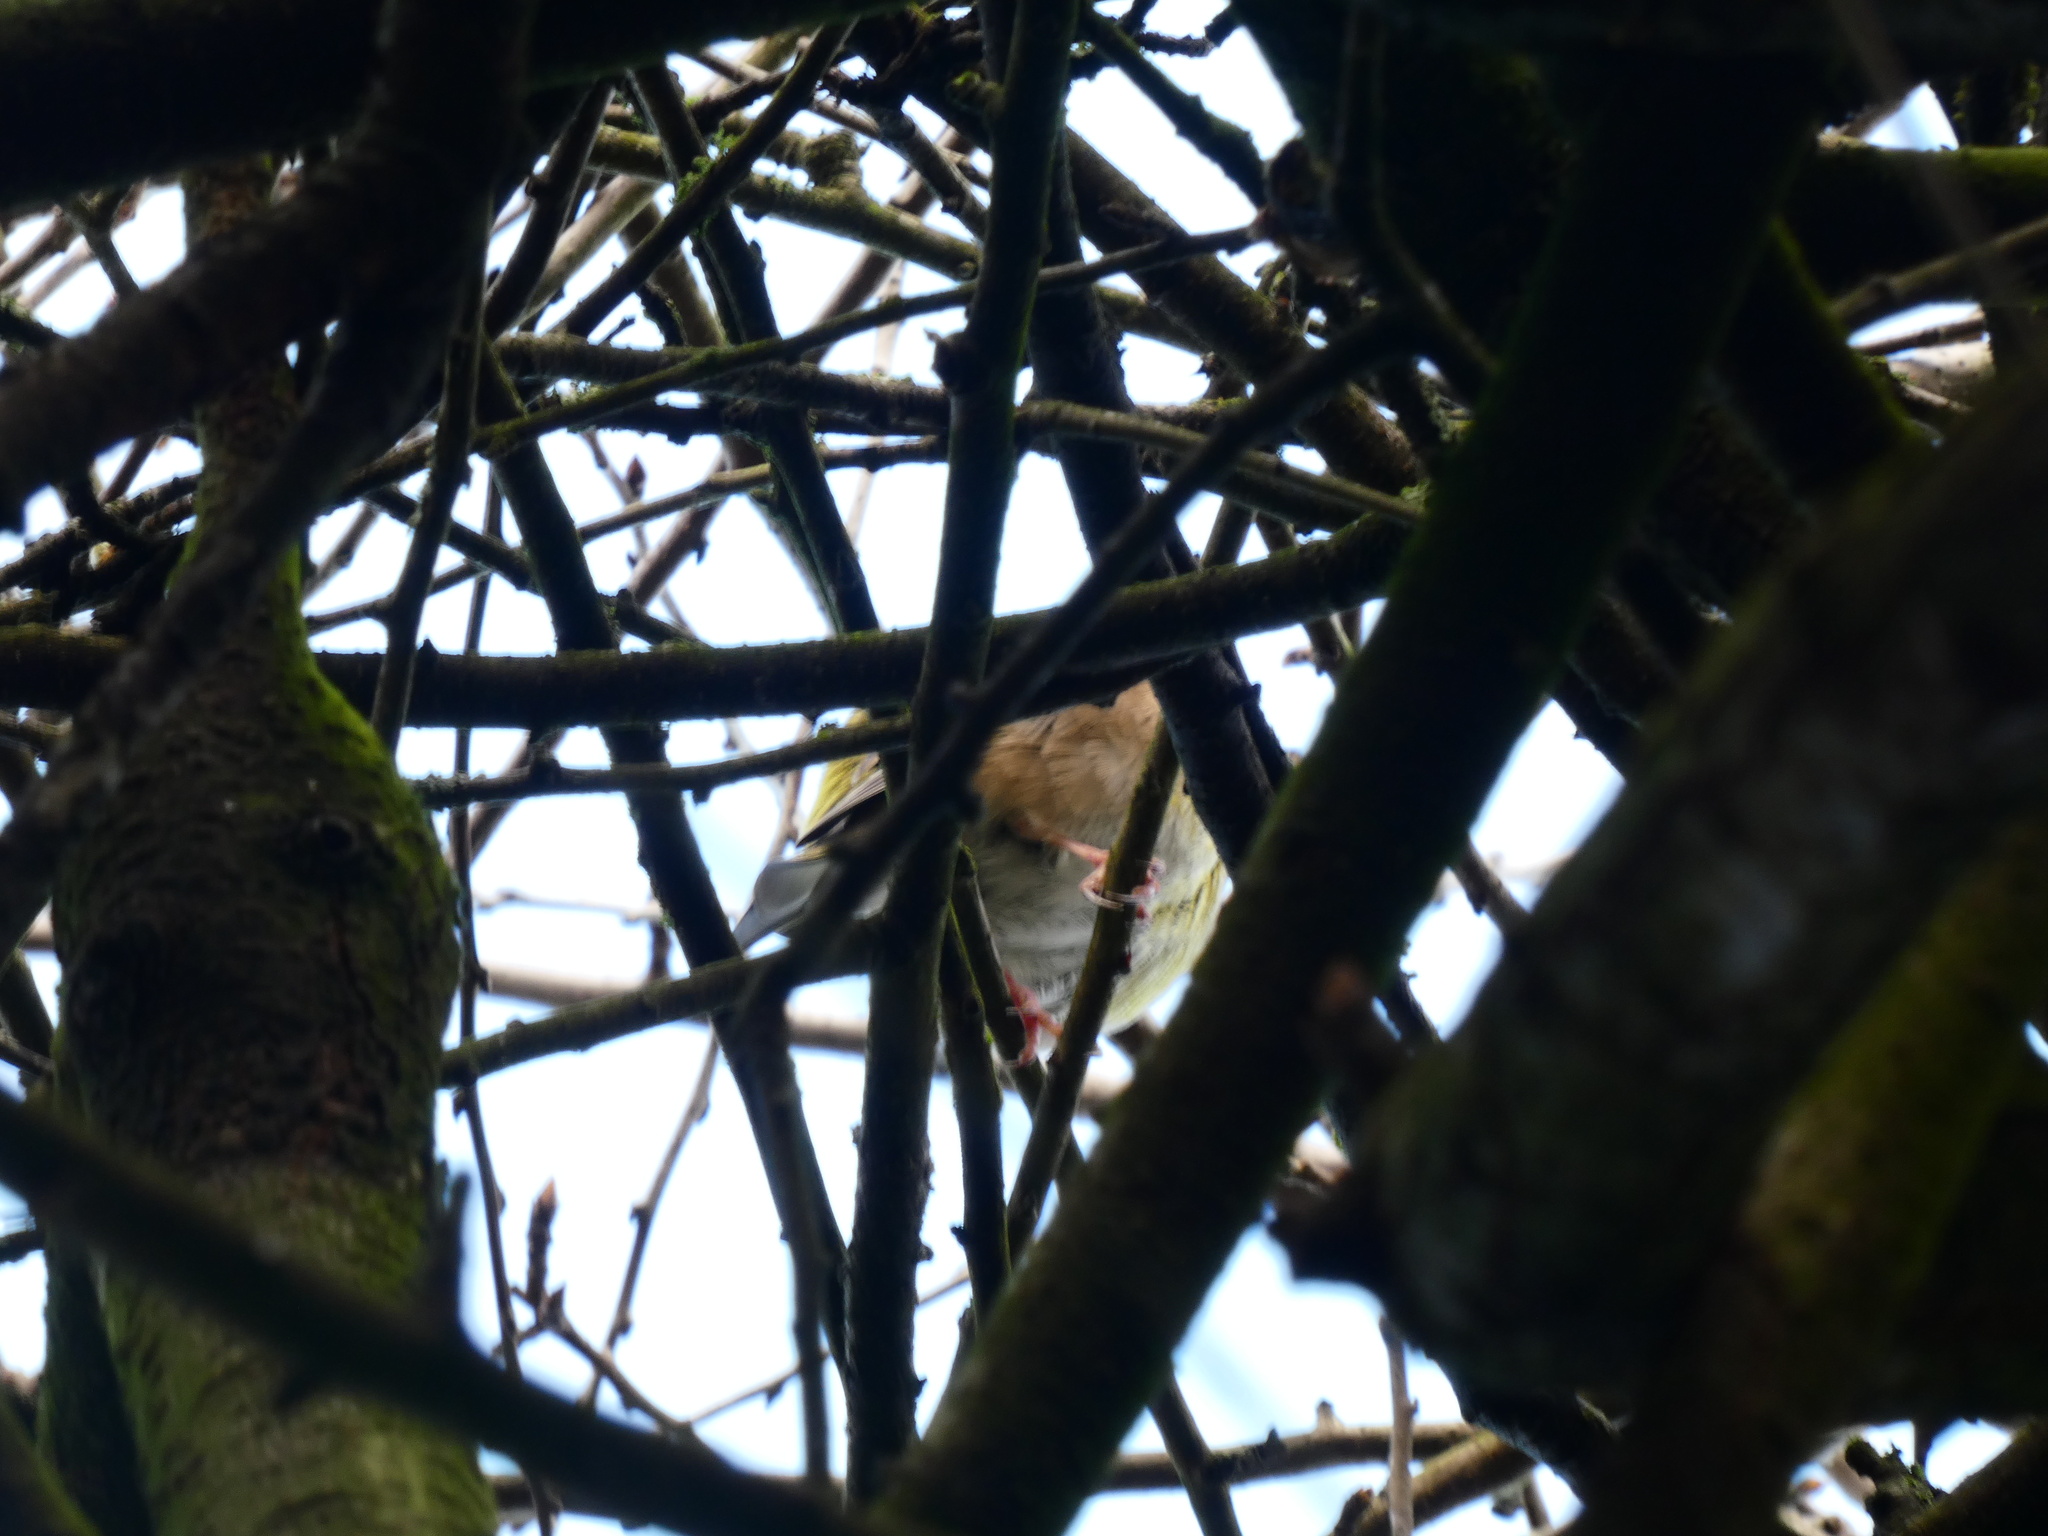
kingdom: Plantae
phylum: Tracheophyta
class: Liliopsida
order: Poales
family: Poaceae
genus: Chloris
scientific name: Chloris chloris
